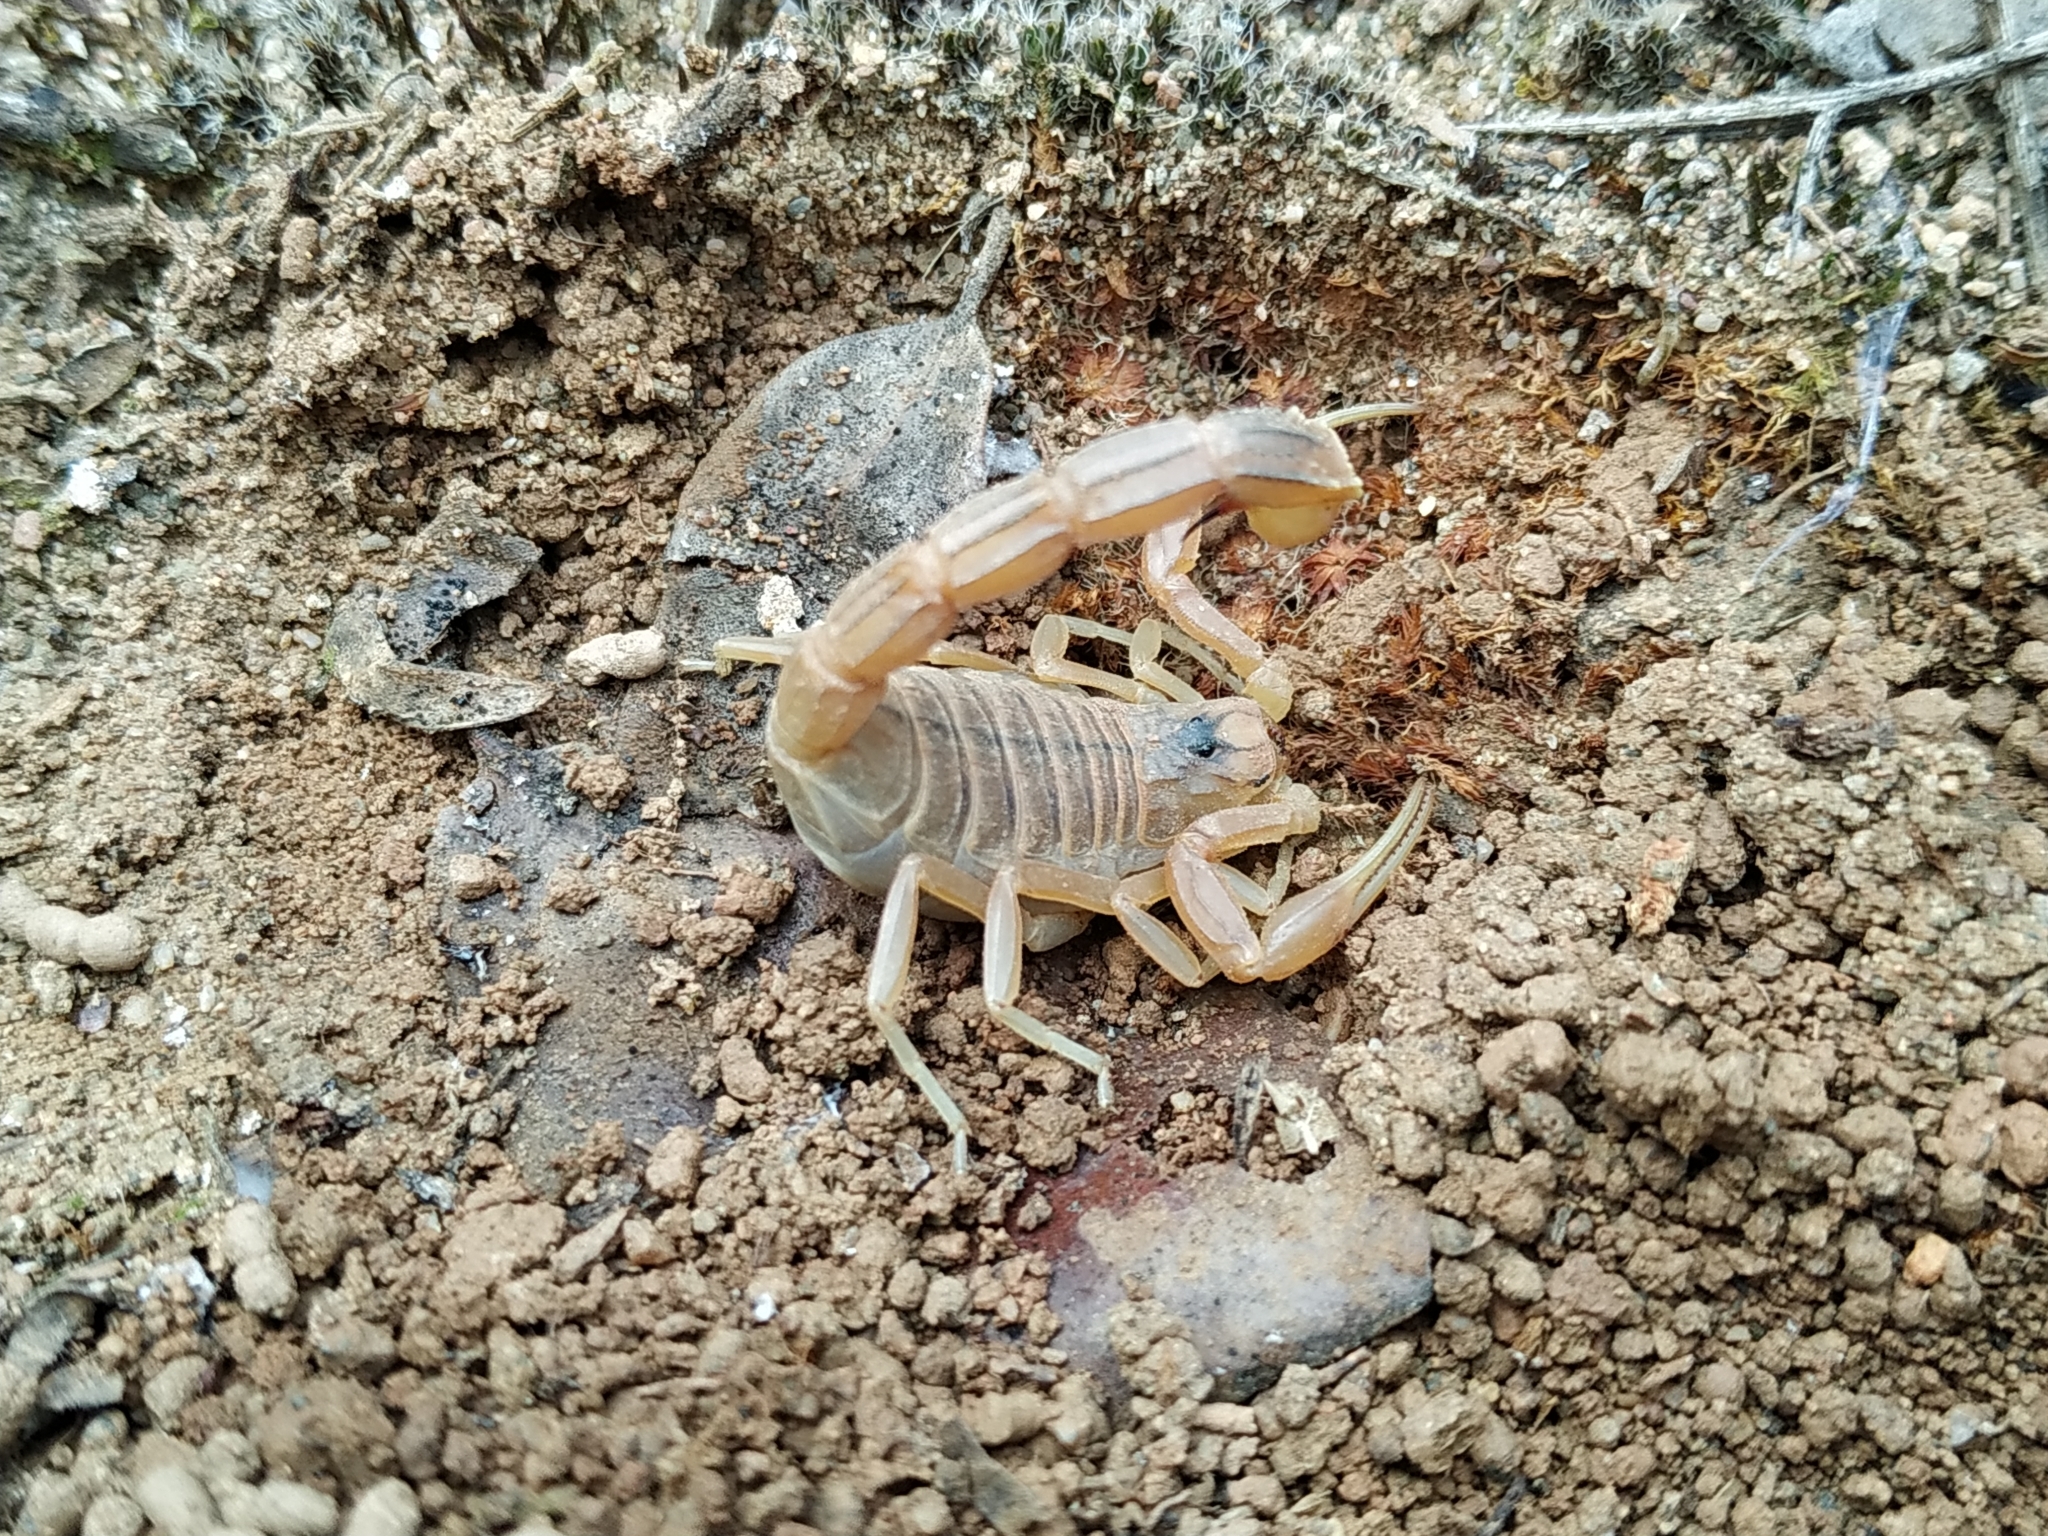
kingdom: Animalia
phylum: Arthropoda
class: Arachnida
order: Scorpiones
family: Buthidae
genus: Buthus
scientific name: Buthus occitanus
